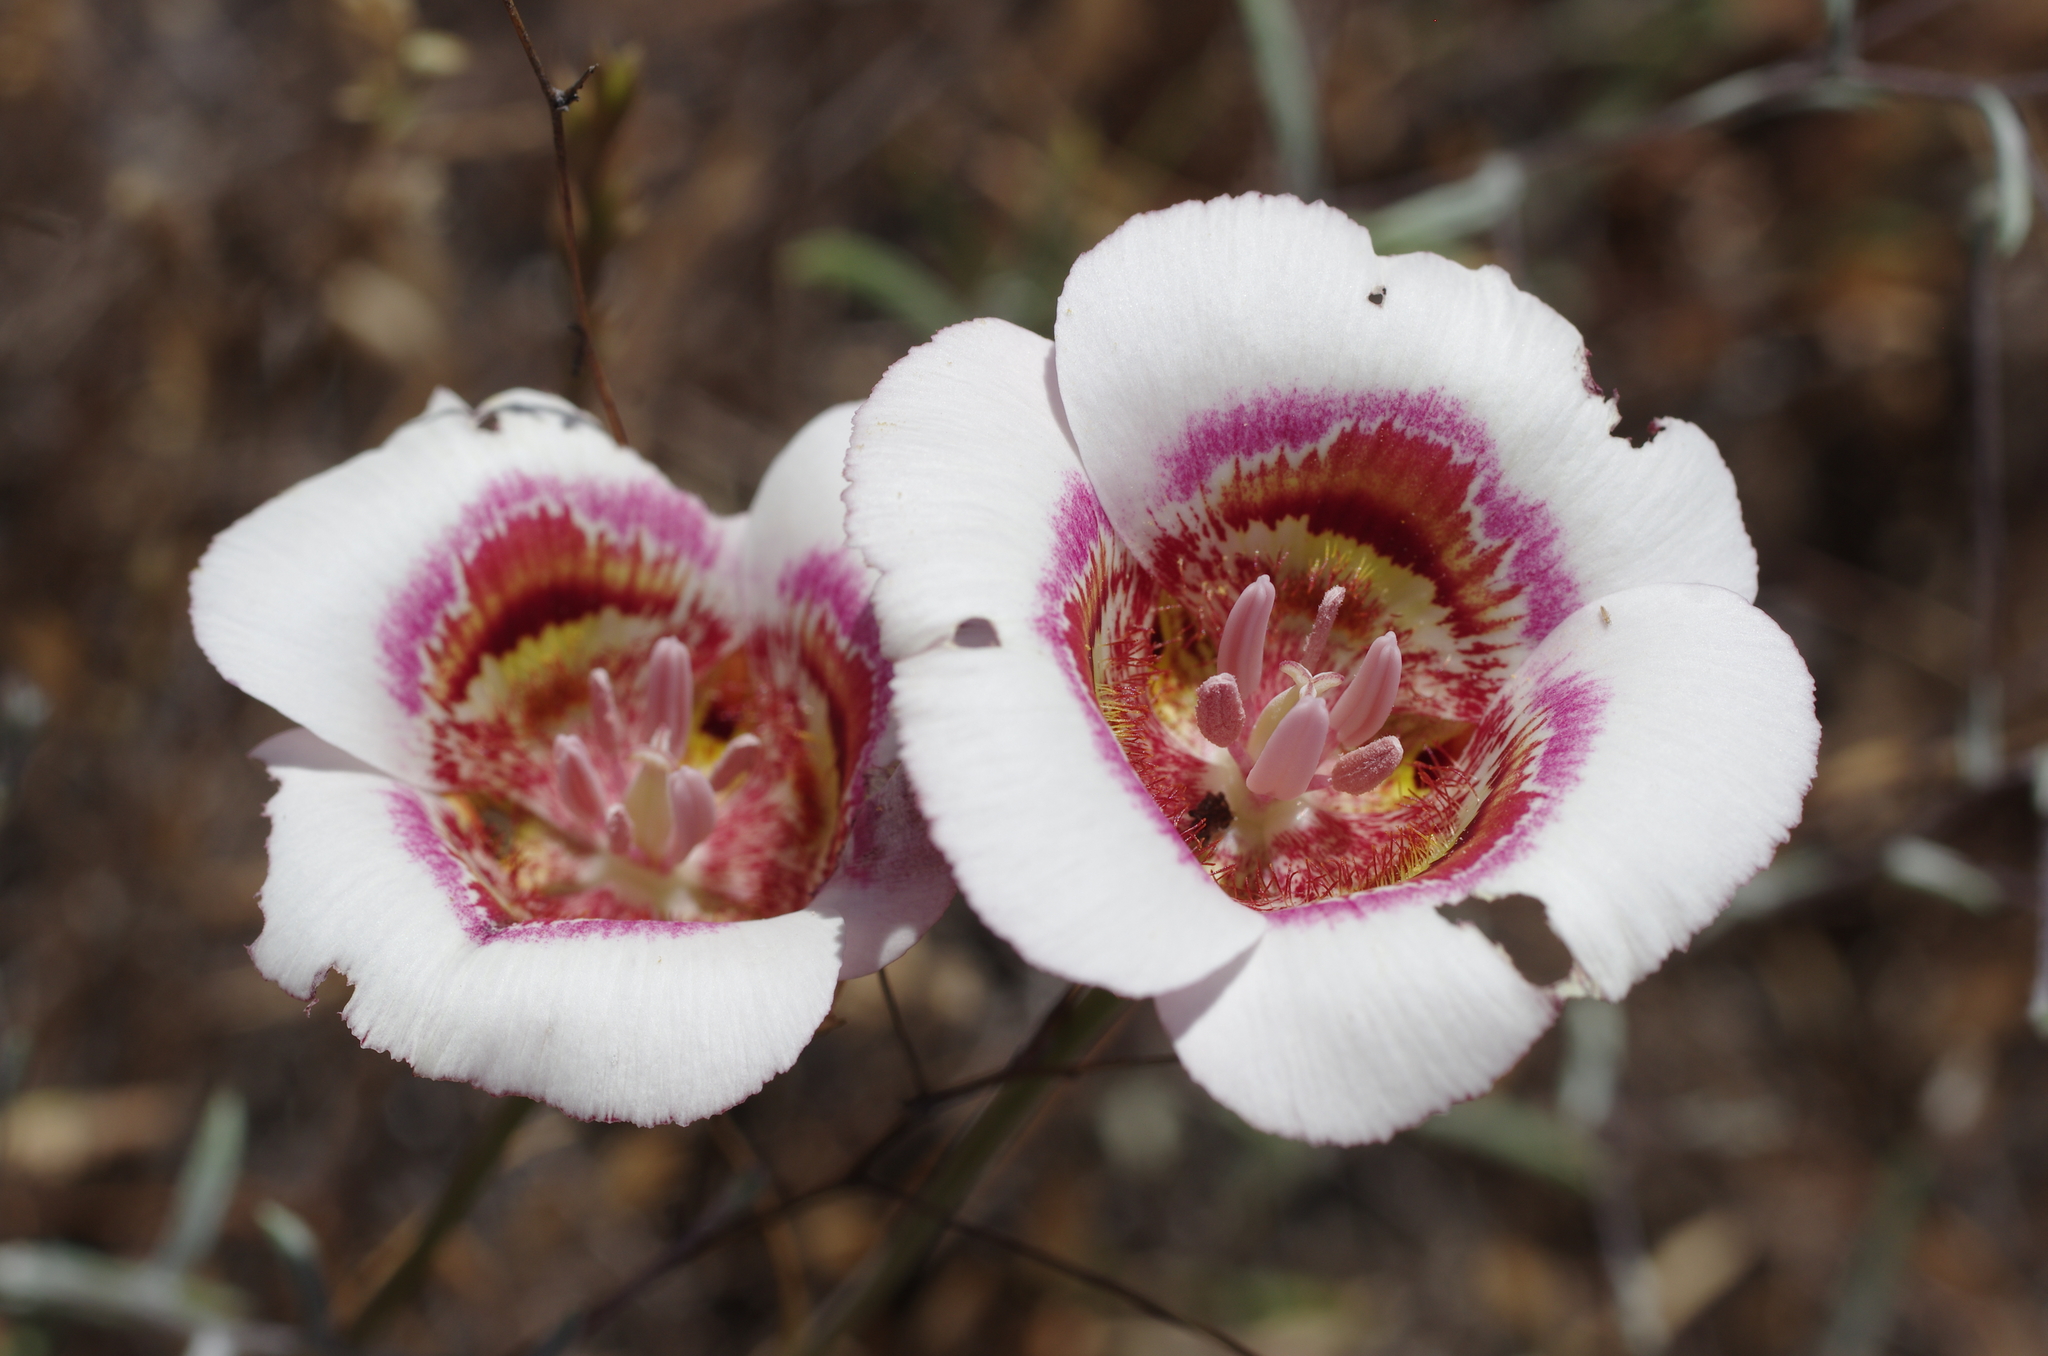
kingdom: Plantae
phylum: Tracheophyta
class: Liliopsida
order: Liliales
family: Liliaceae
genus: Calochortus
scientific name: Calochortus argillosus
